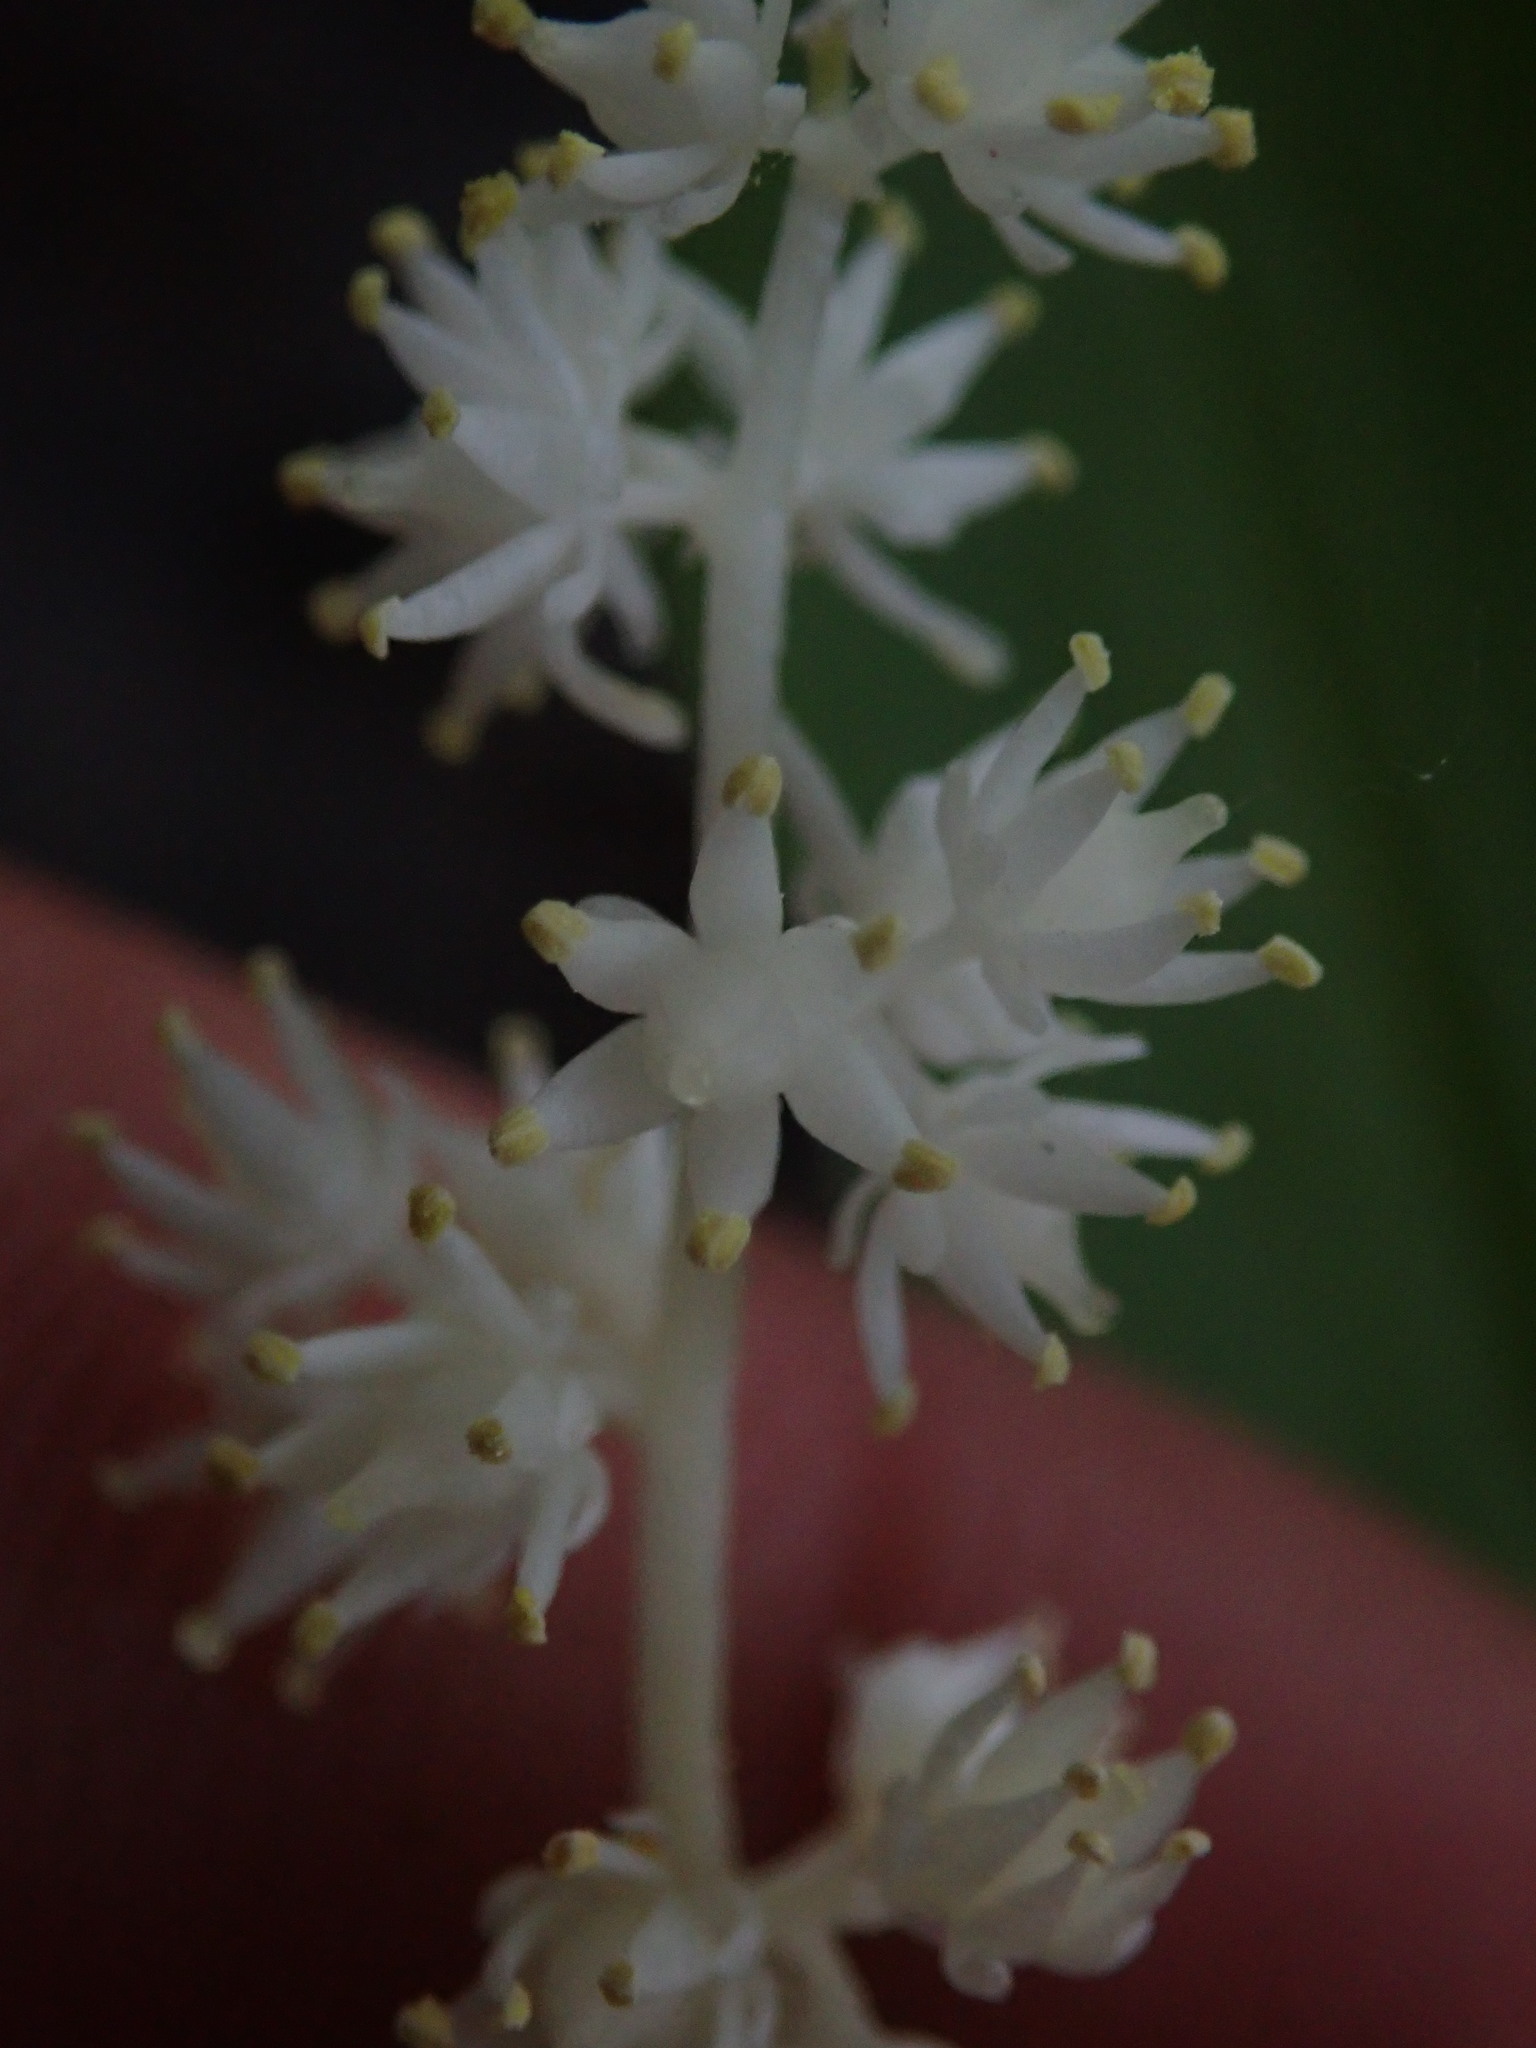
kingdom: Plantae
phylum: Tracheophyta
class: Liliopsida
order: Asparagales
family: Asparagaceae
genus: Maianthemum
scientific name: Maianthemum racemosum
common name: False spikenard
